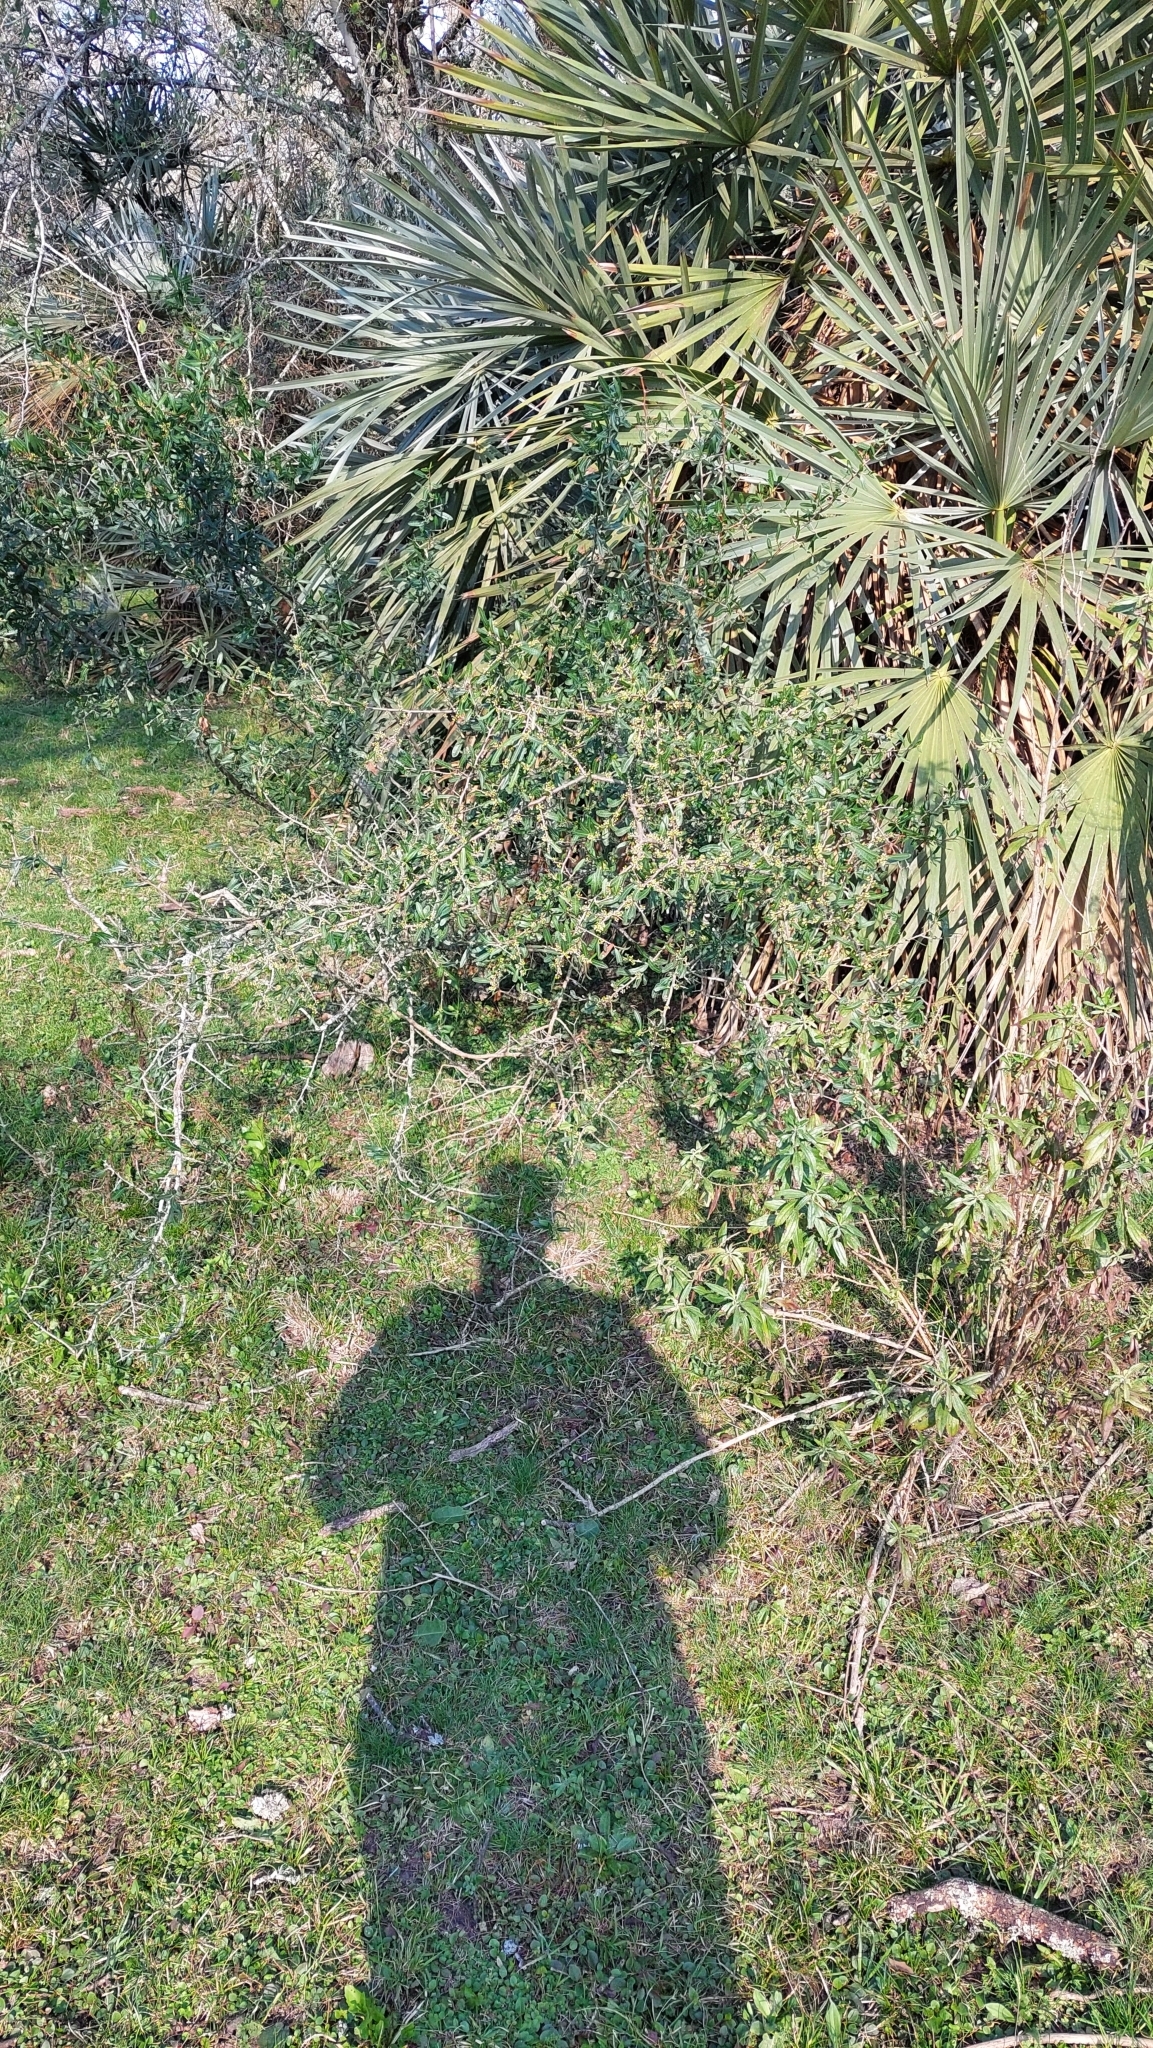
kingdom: Plantae
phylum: Tracheophyta
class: Magnoliopsida
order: Sapindales
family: Anacardiaceae
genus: Schinus
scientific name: Schinus longifolia
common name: Longleaf peppertree
